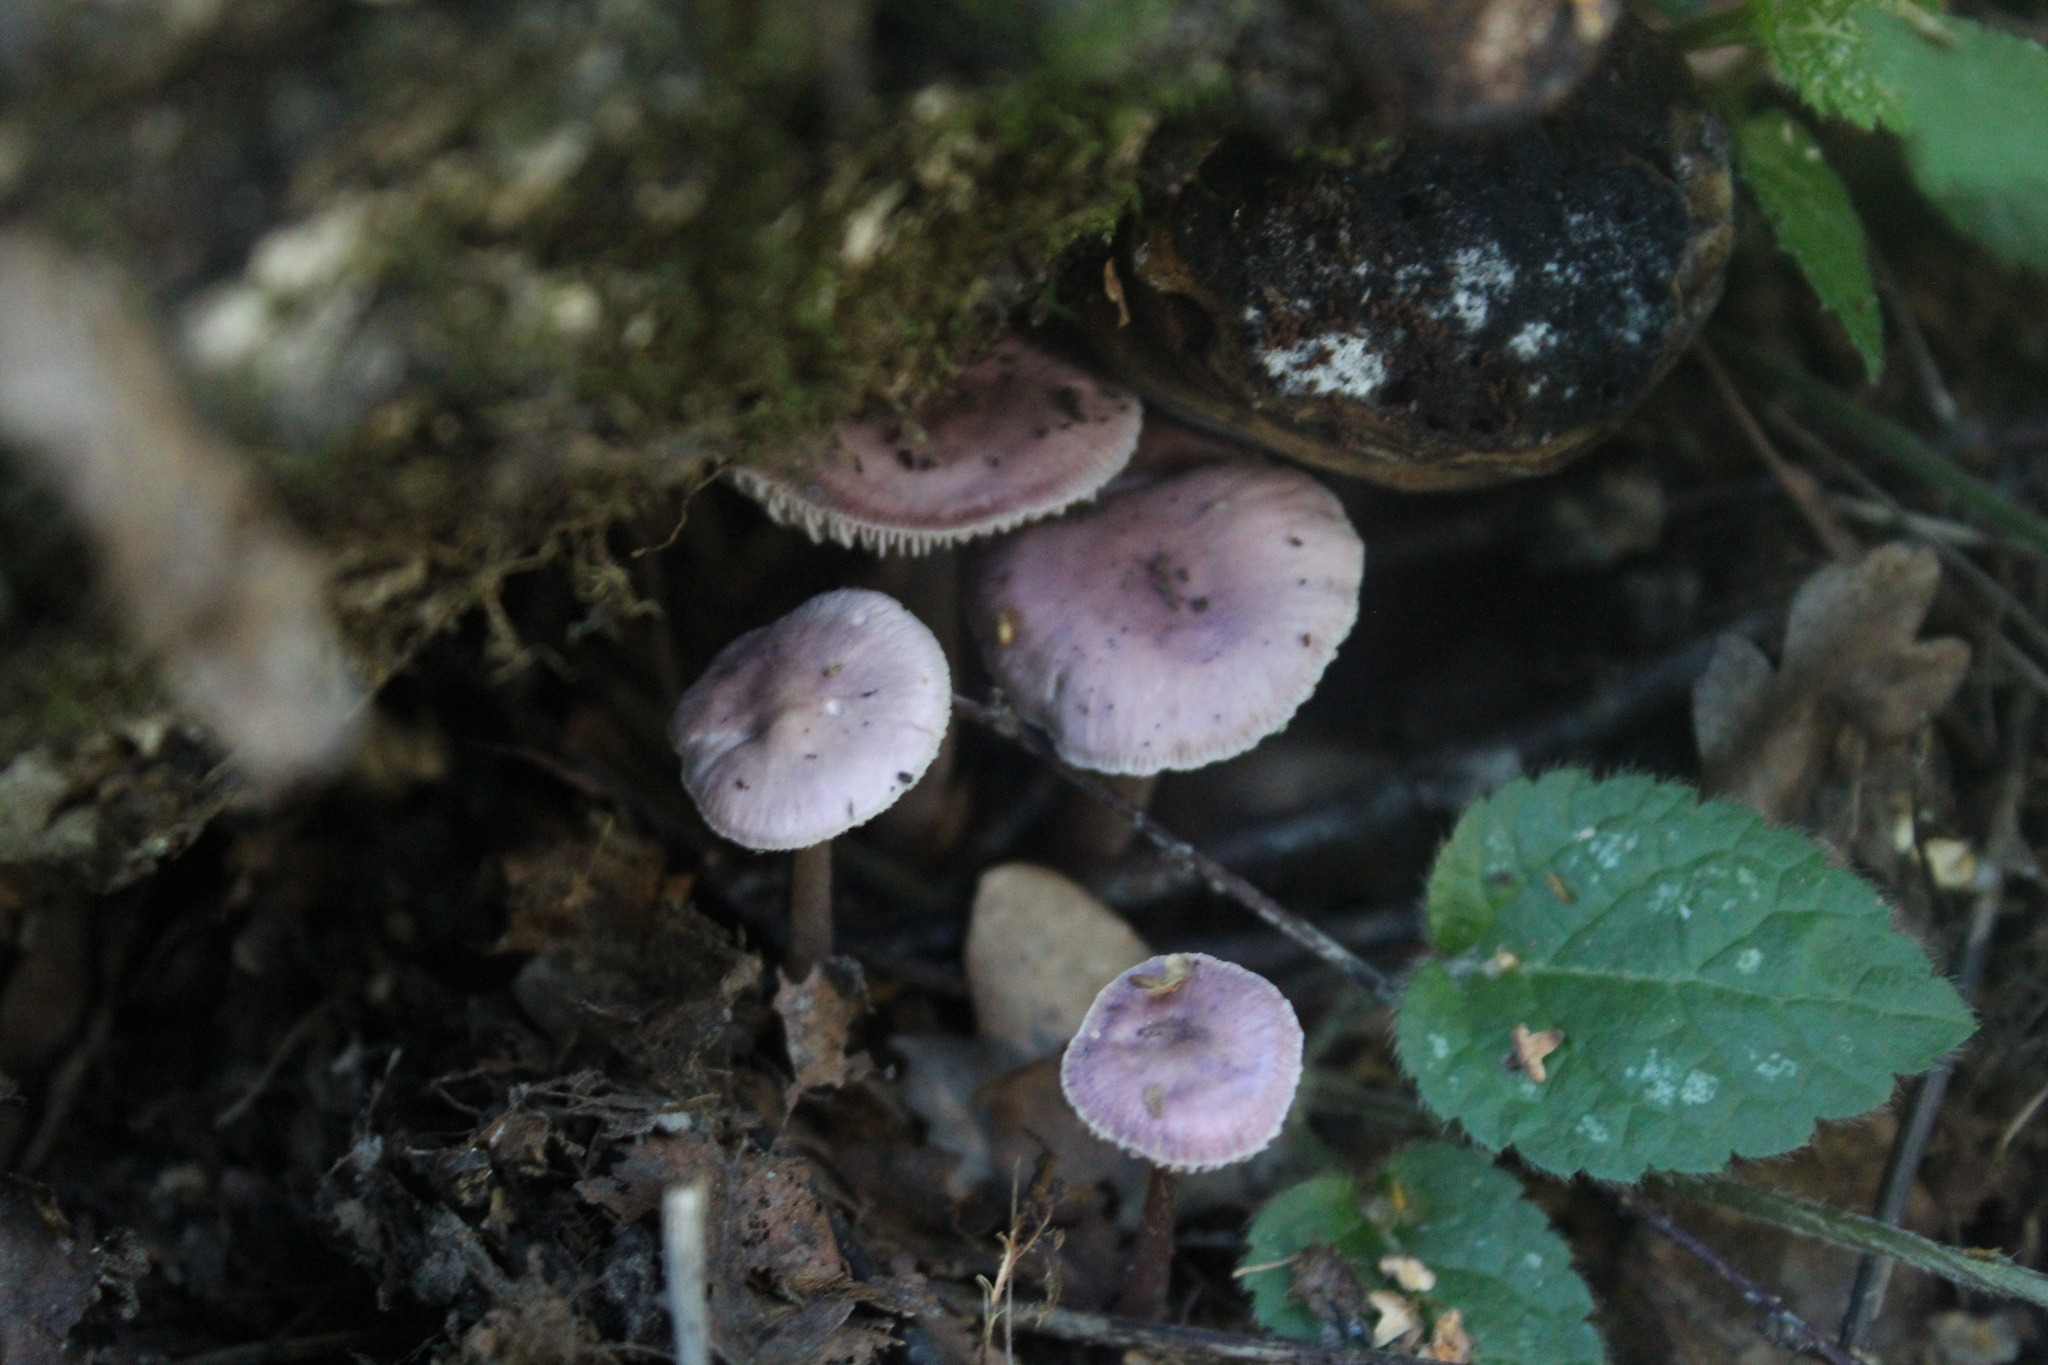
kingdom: Fungi
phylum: Basidiomycota
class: Agaricomycetes
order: Agaricales
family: Mycenaceae
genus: Mycena
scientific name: Mycena pura
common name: Lilac bonnet
